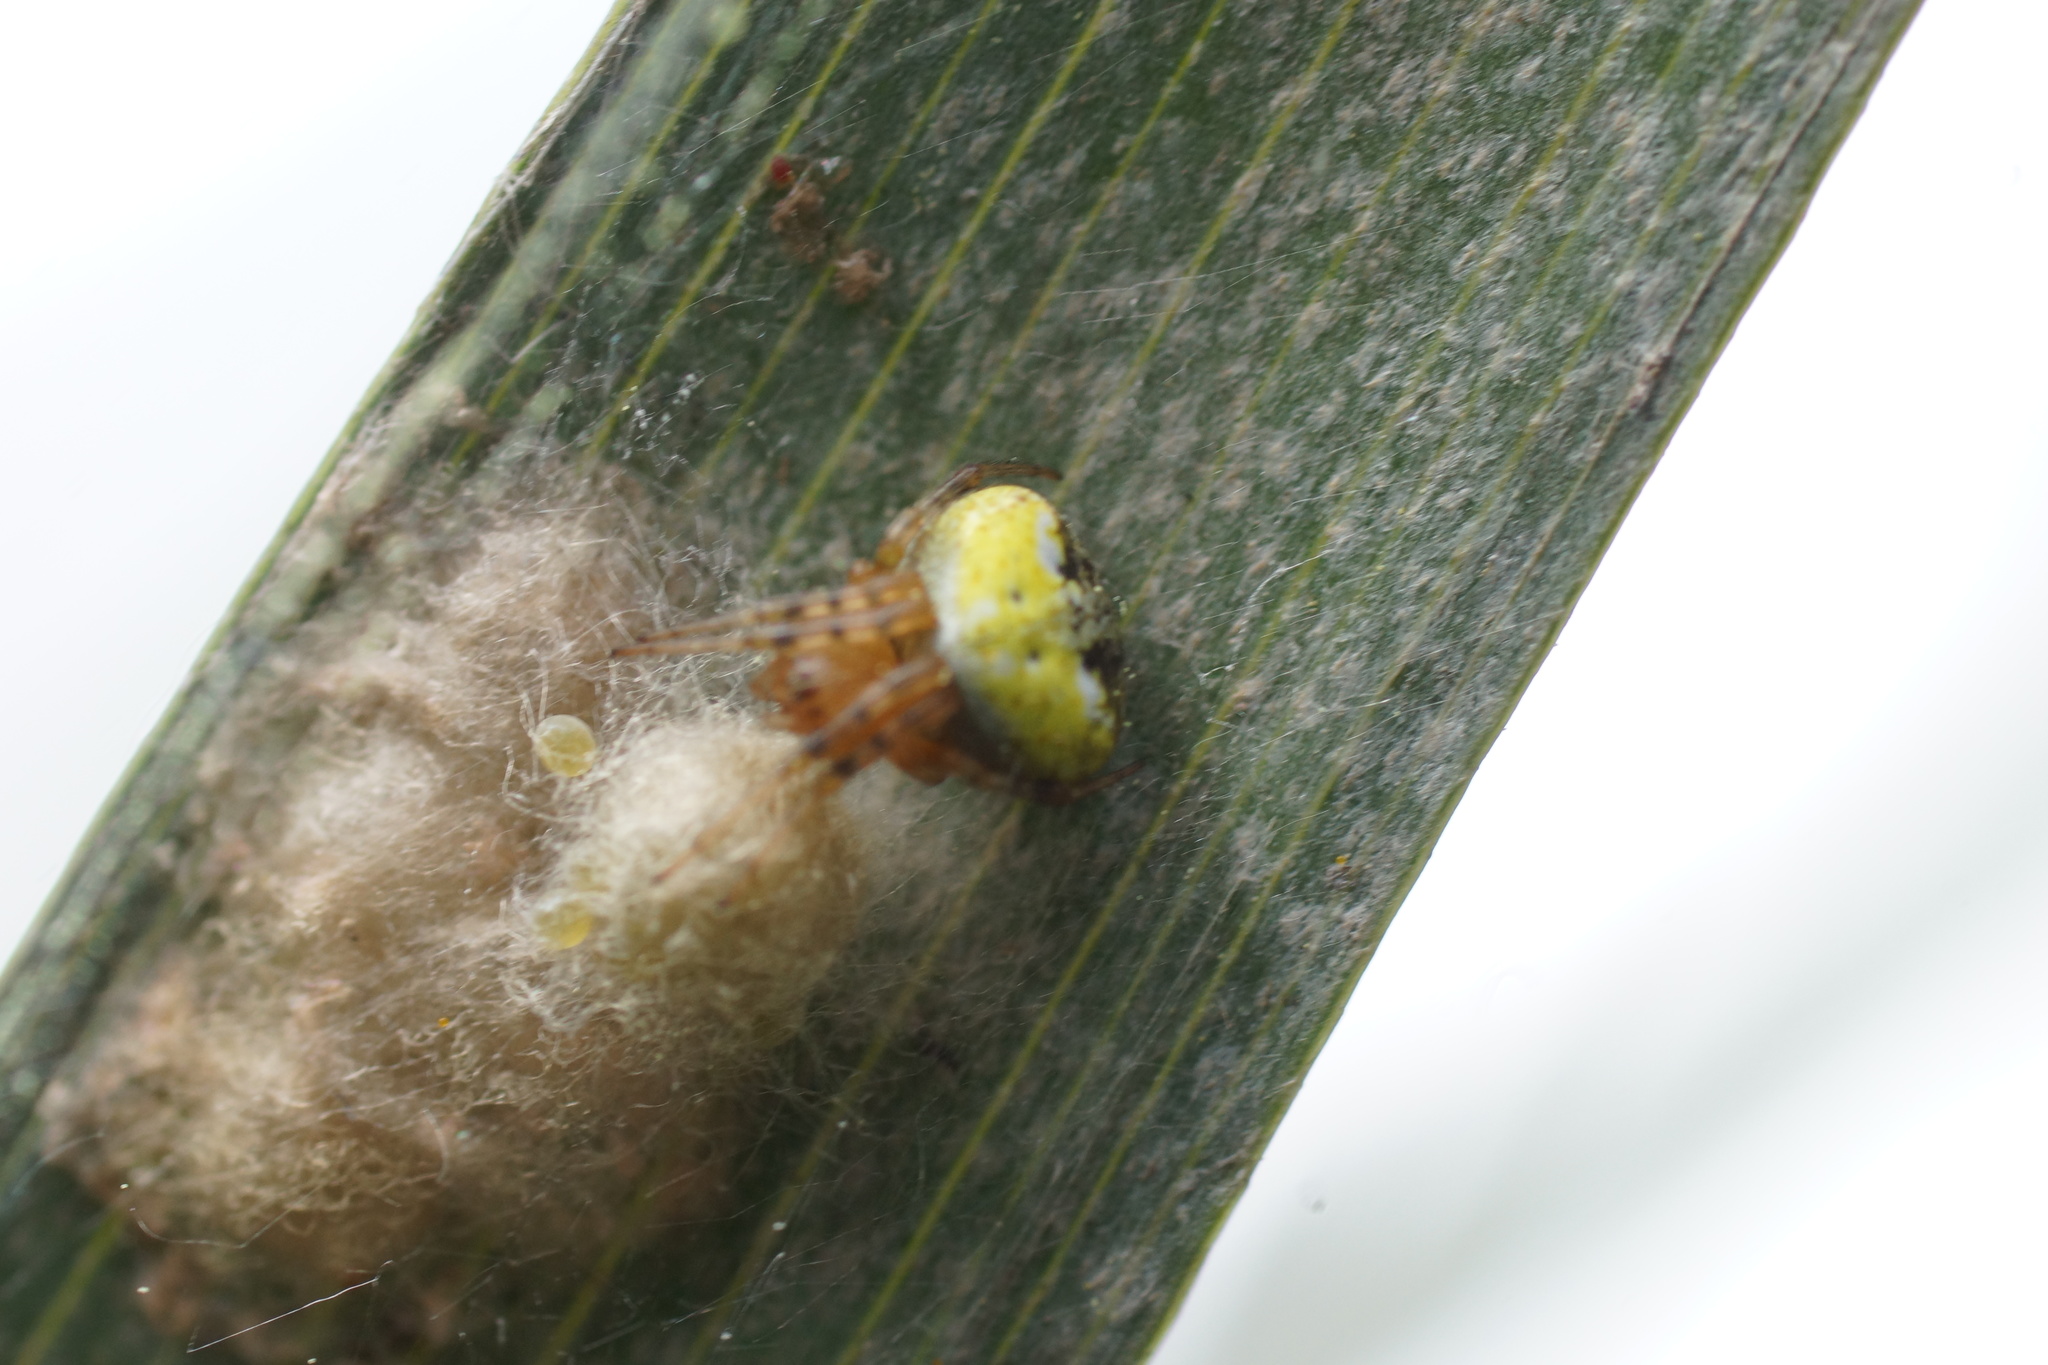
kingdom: Animalia
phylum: Arthropoda
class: Arachnida
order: Araneae
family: Araneidae
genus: Araneus
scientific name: Araneus albotriangulus
